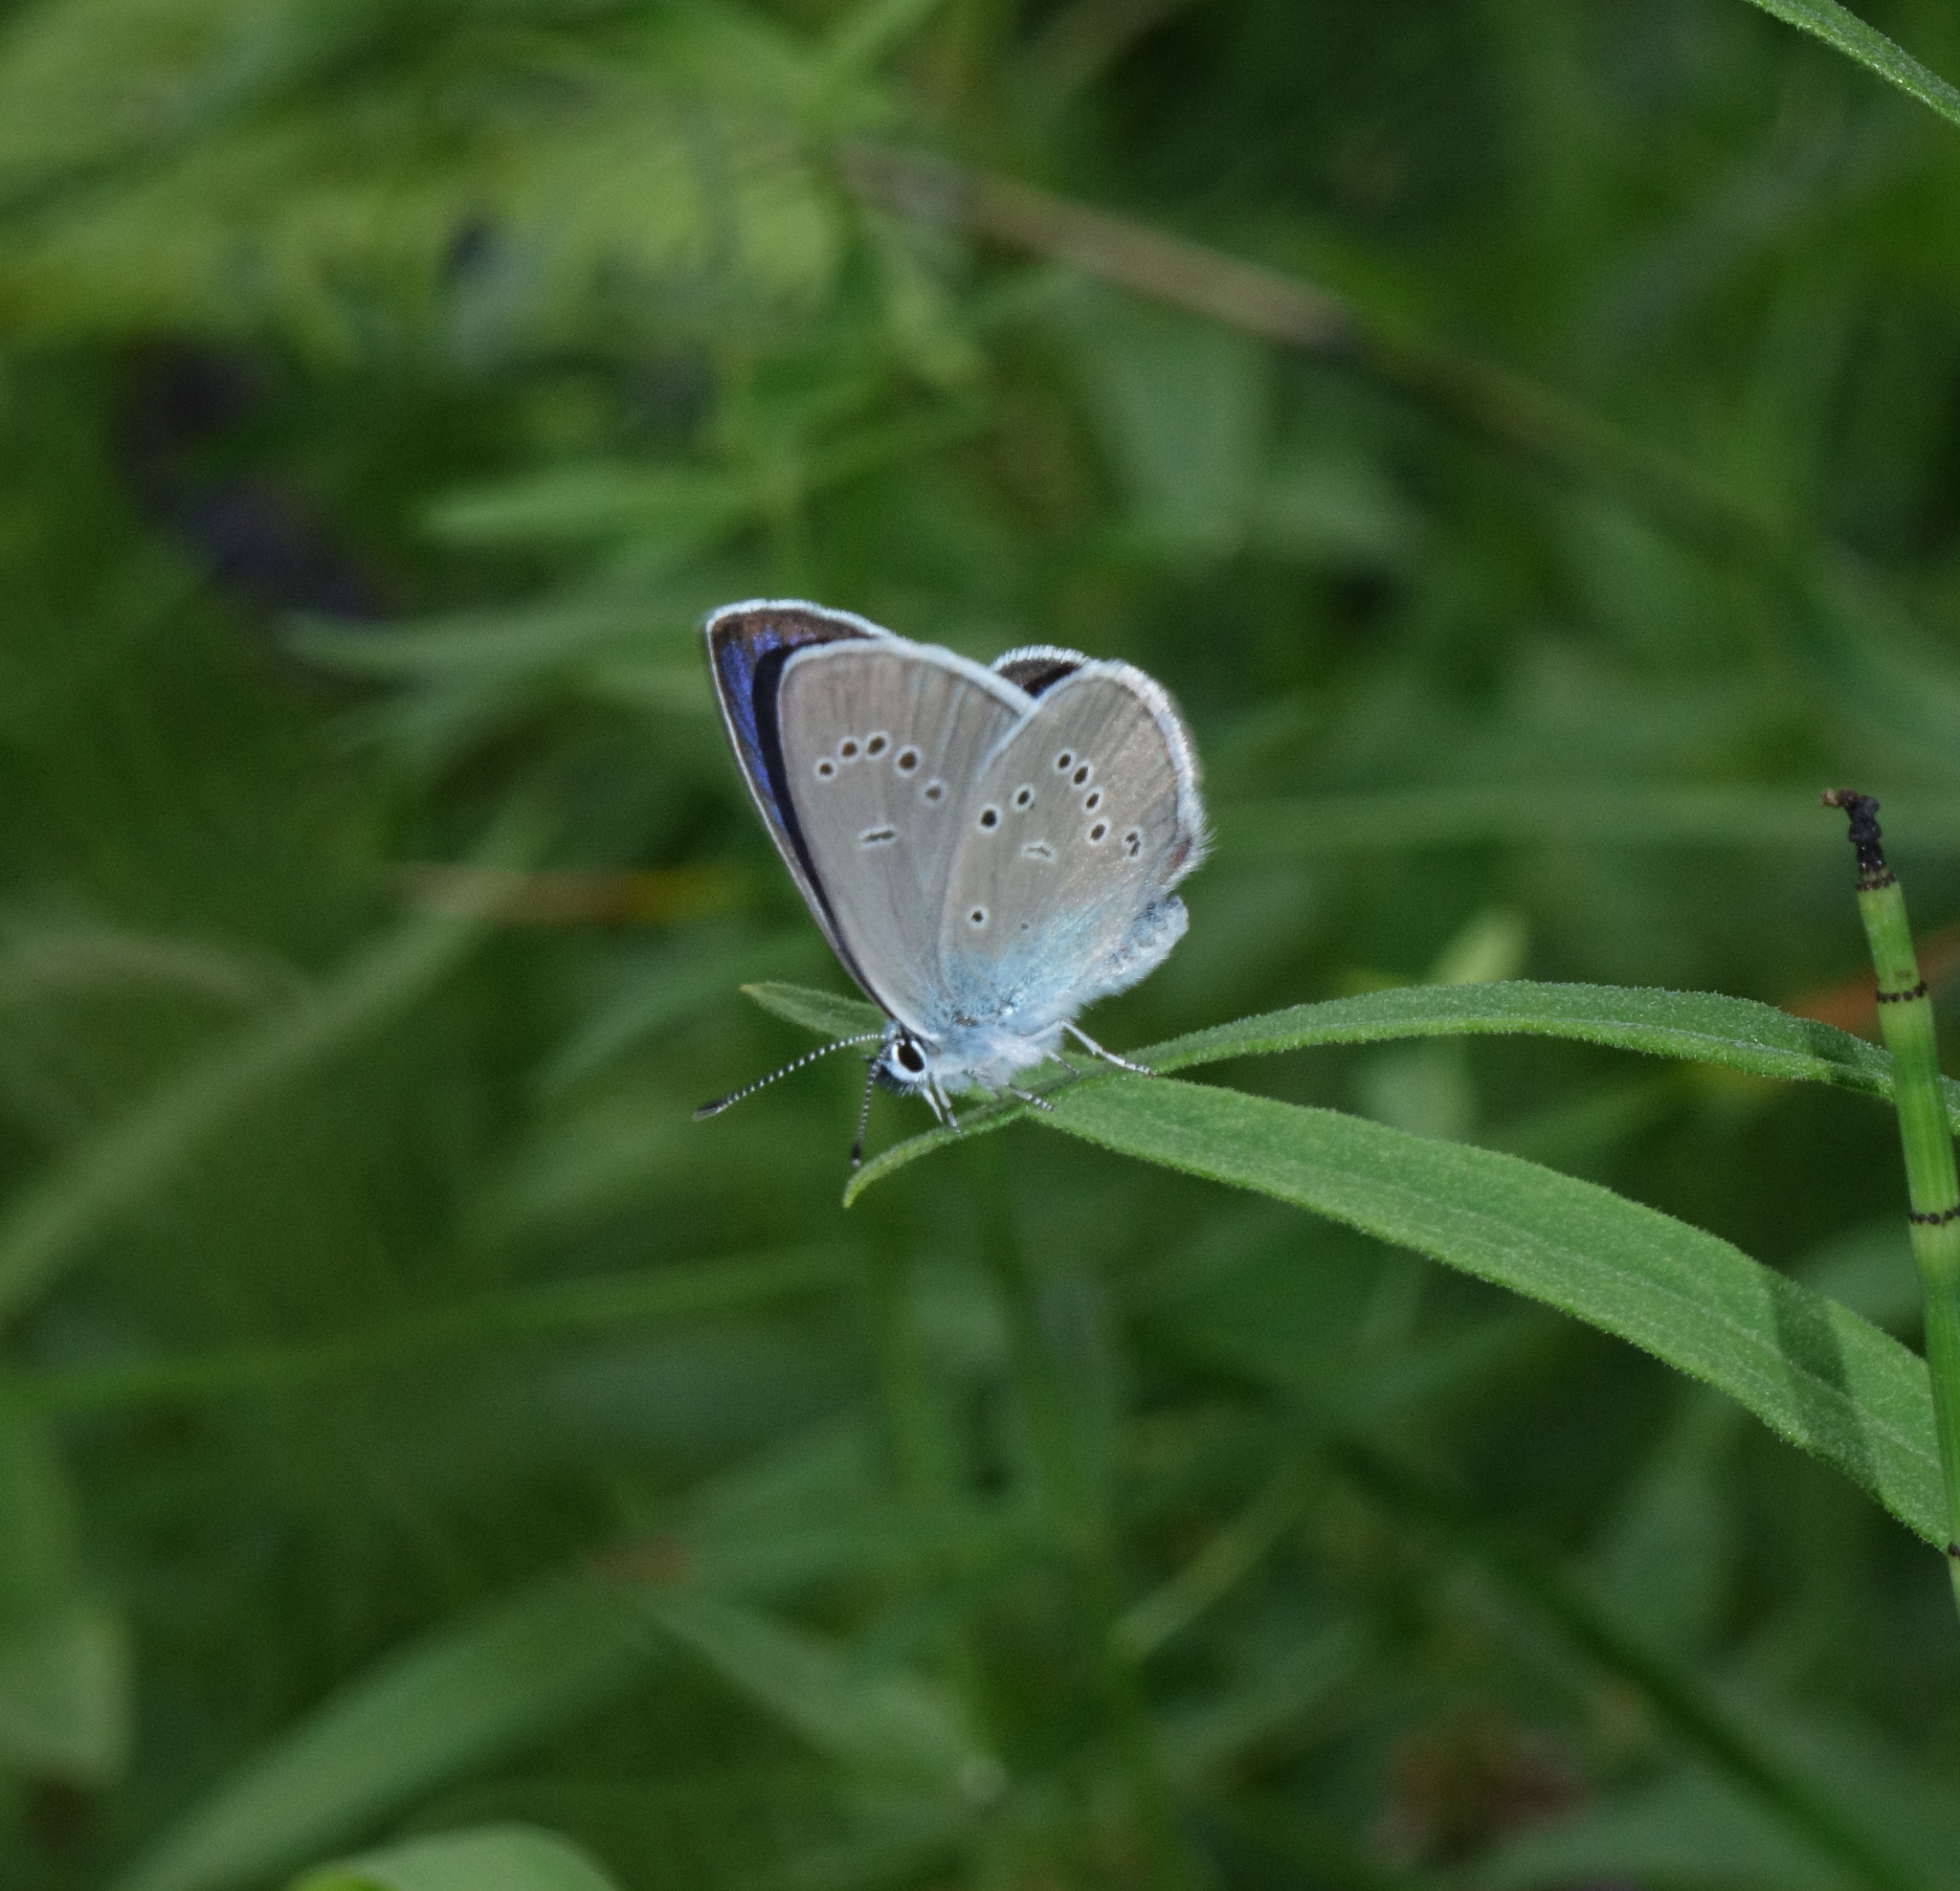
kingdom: Animalia
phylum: Arthropoda
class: Insecta
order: Lepidoptera
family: Lycaenidae
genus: Cyaniris
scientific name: Cyaniris semiargus
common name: Mazarine blue
